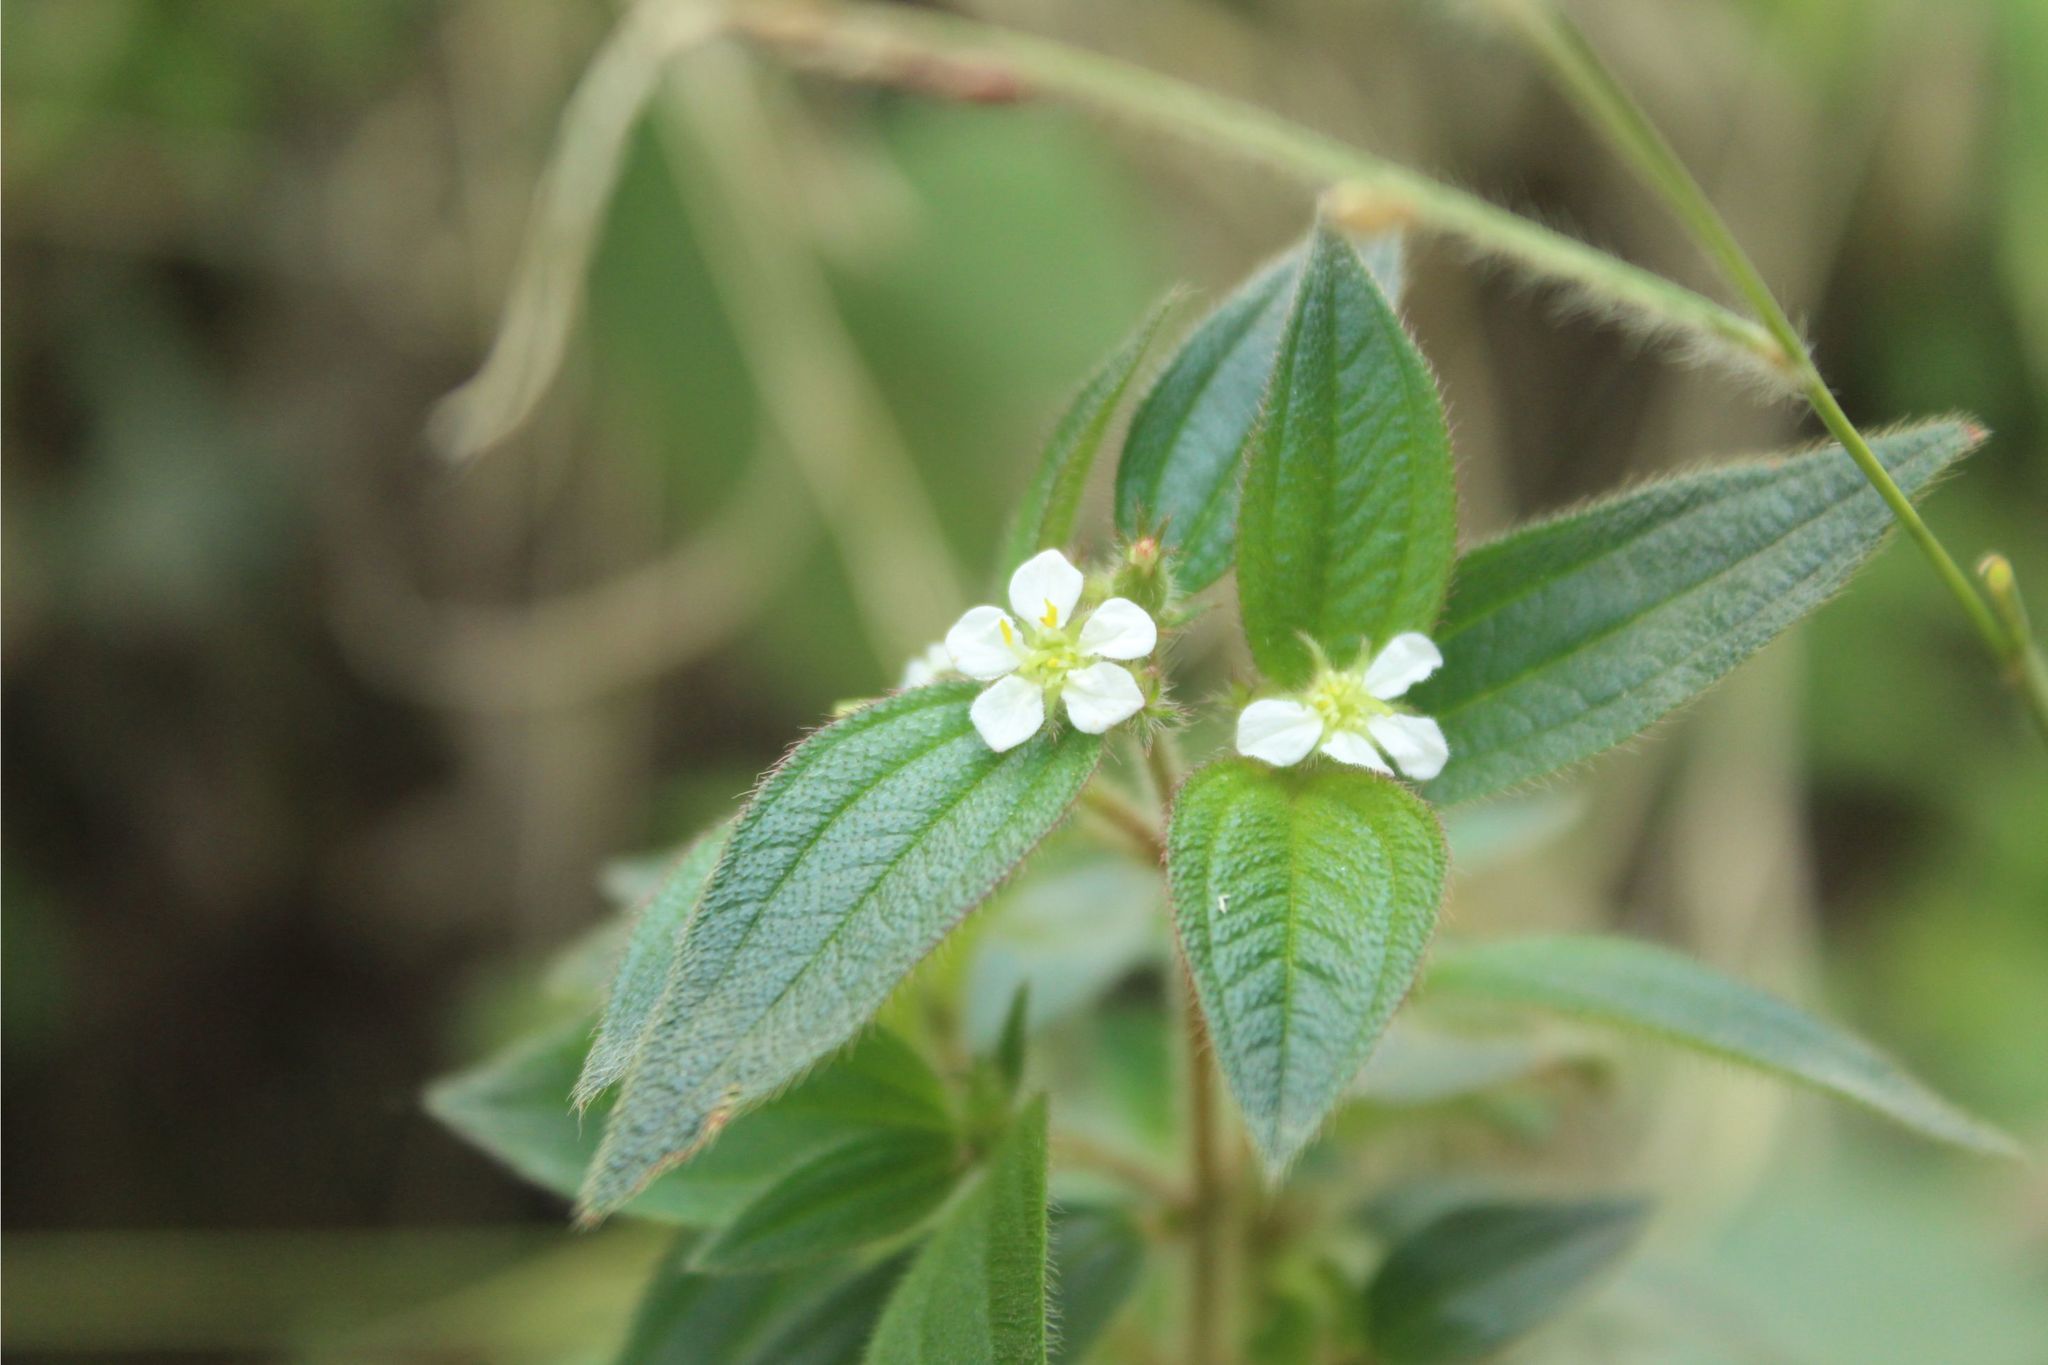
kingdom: Plantae
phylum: Tracheophyta
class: Magnoliopsida
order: Myrtales
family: Melastomataceae
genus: Chaetogastra
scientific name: Chaetogastra longifolia
